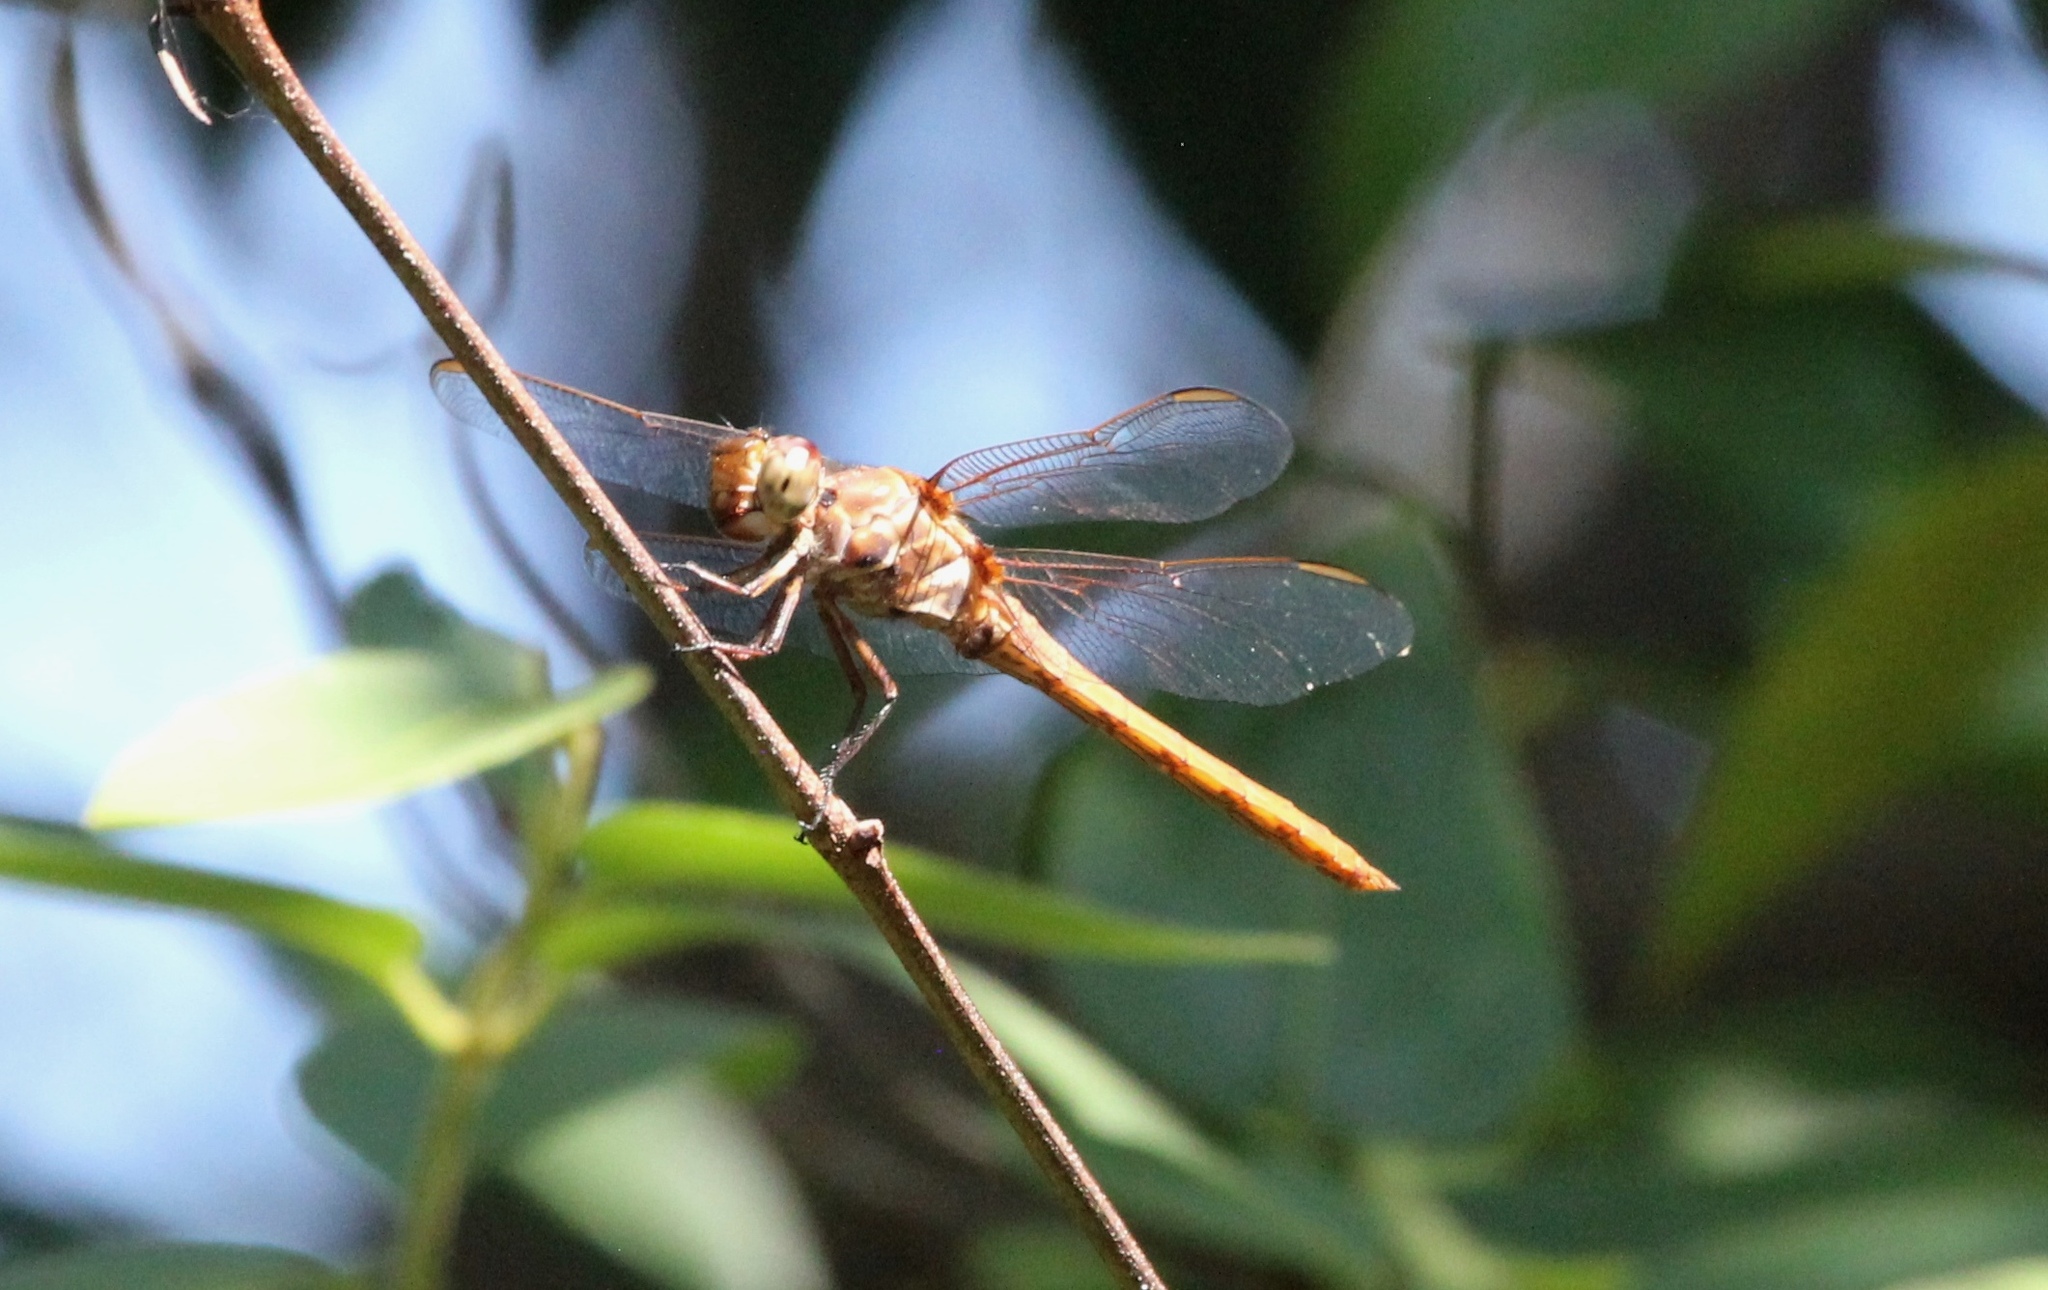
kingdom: Animalia
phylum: Arthropoda
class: Insecta
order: Odonata
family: Libellulidae
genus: Orthemis
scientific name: Orthemis ferruginea
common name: Roseate skimmer
